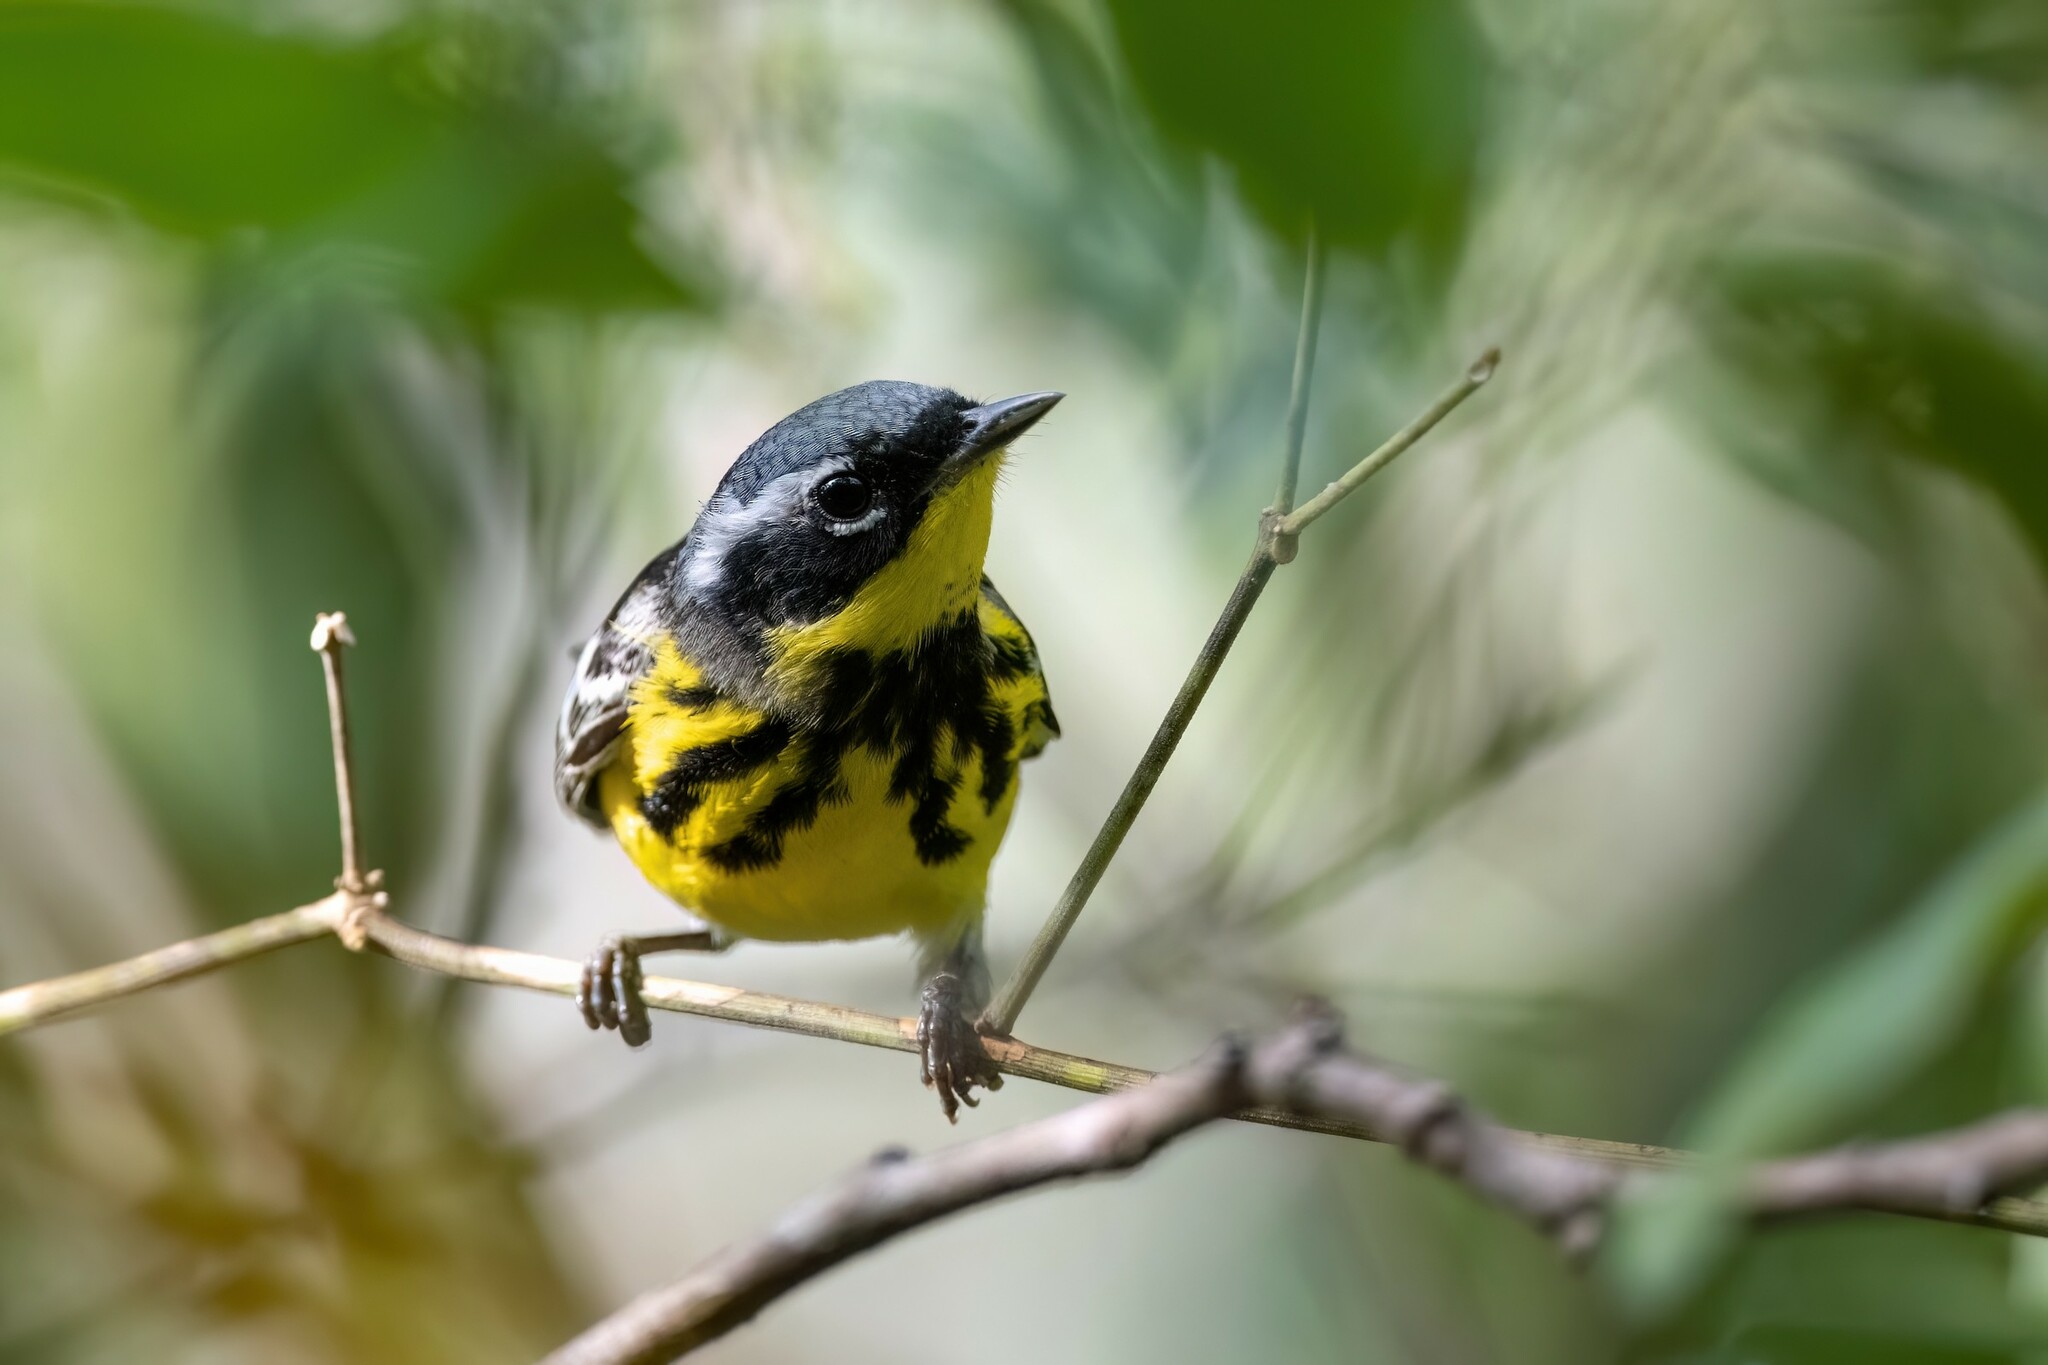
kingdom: Animalia
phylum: Chordata
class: Aves
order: Passeriformes
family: Parulidae
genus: Setophaga
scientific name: Setophaga magnolia
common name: Magnolia warbler
